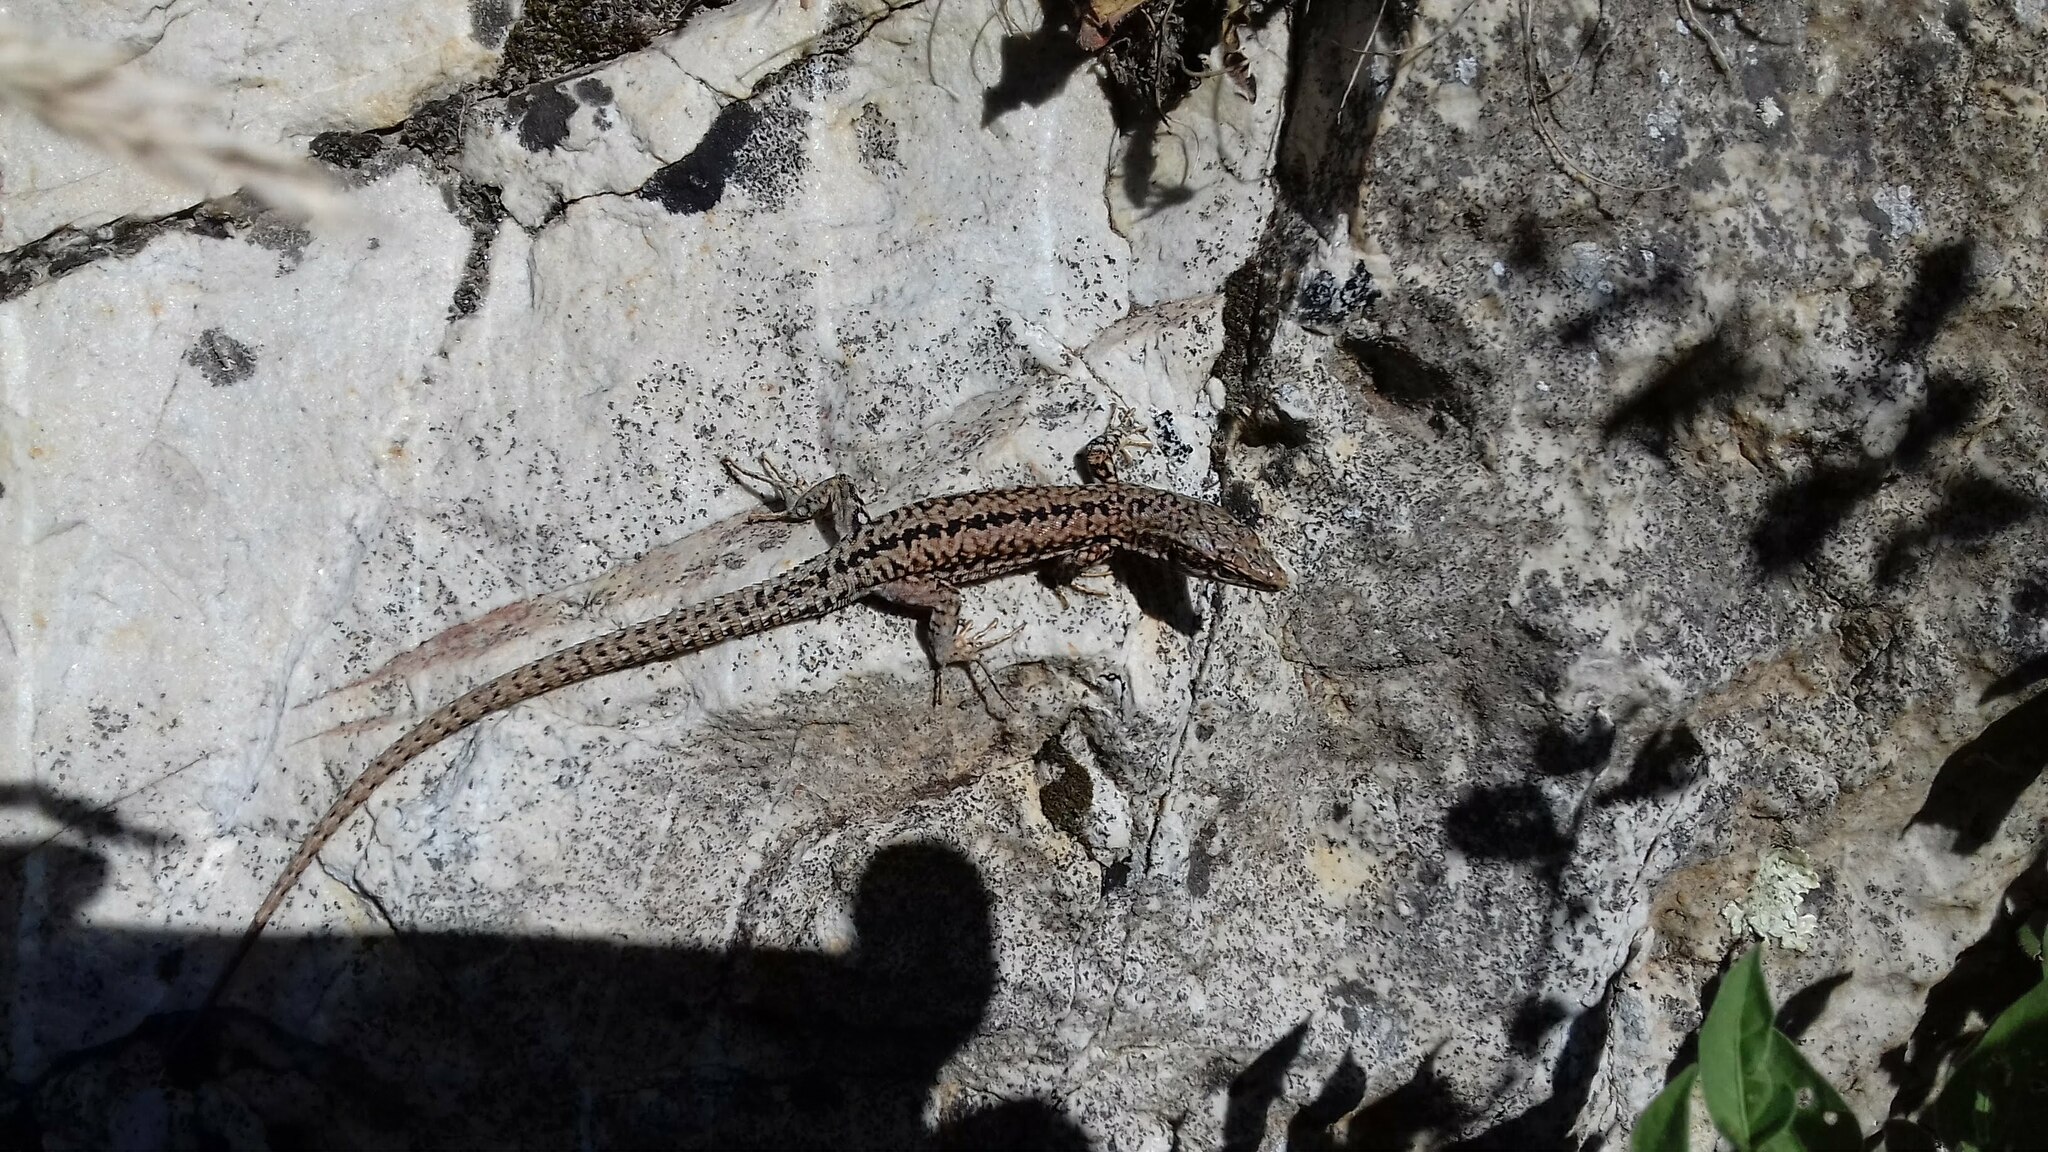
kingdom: Animalia
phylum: Chordata
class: Squamata
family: Lacertidae
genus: Podarcis
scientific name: Podarcis muralis
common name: Common wall lizard
